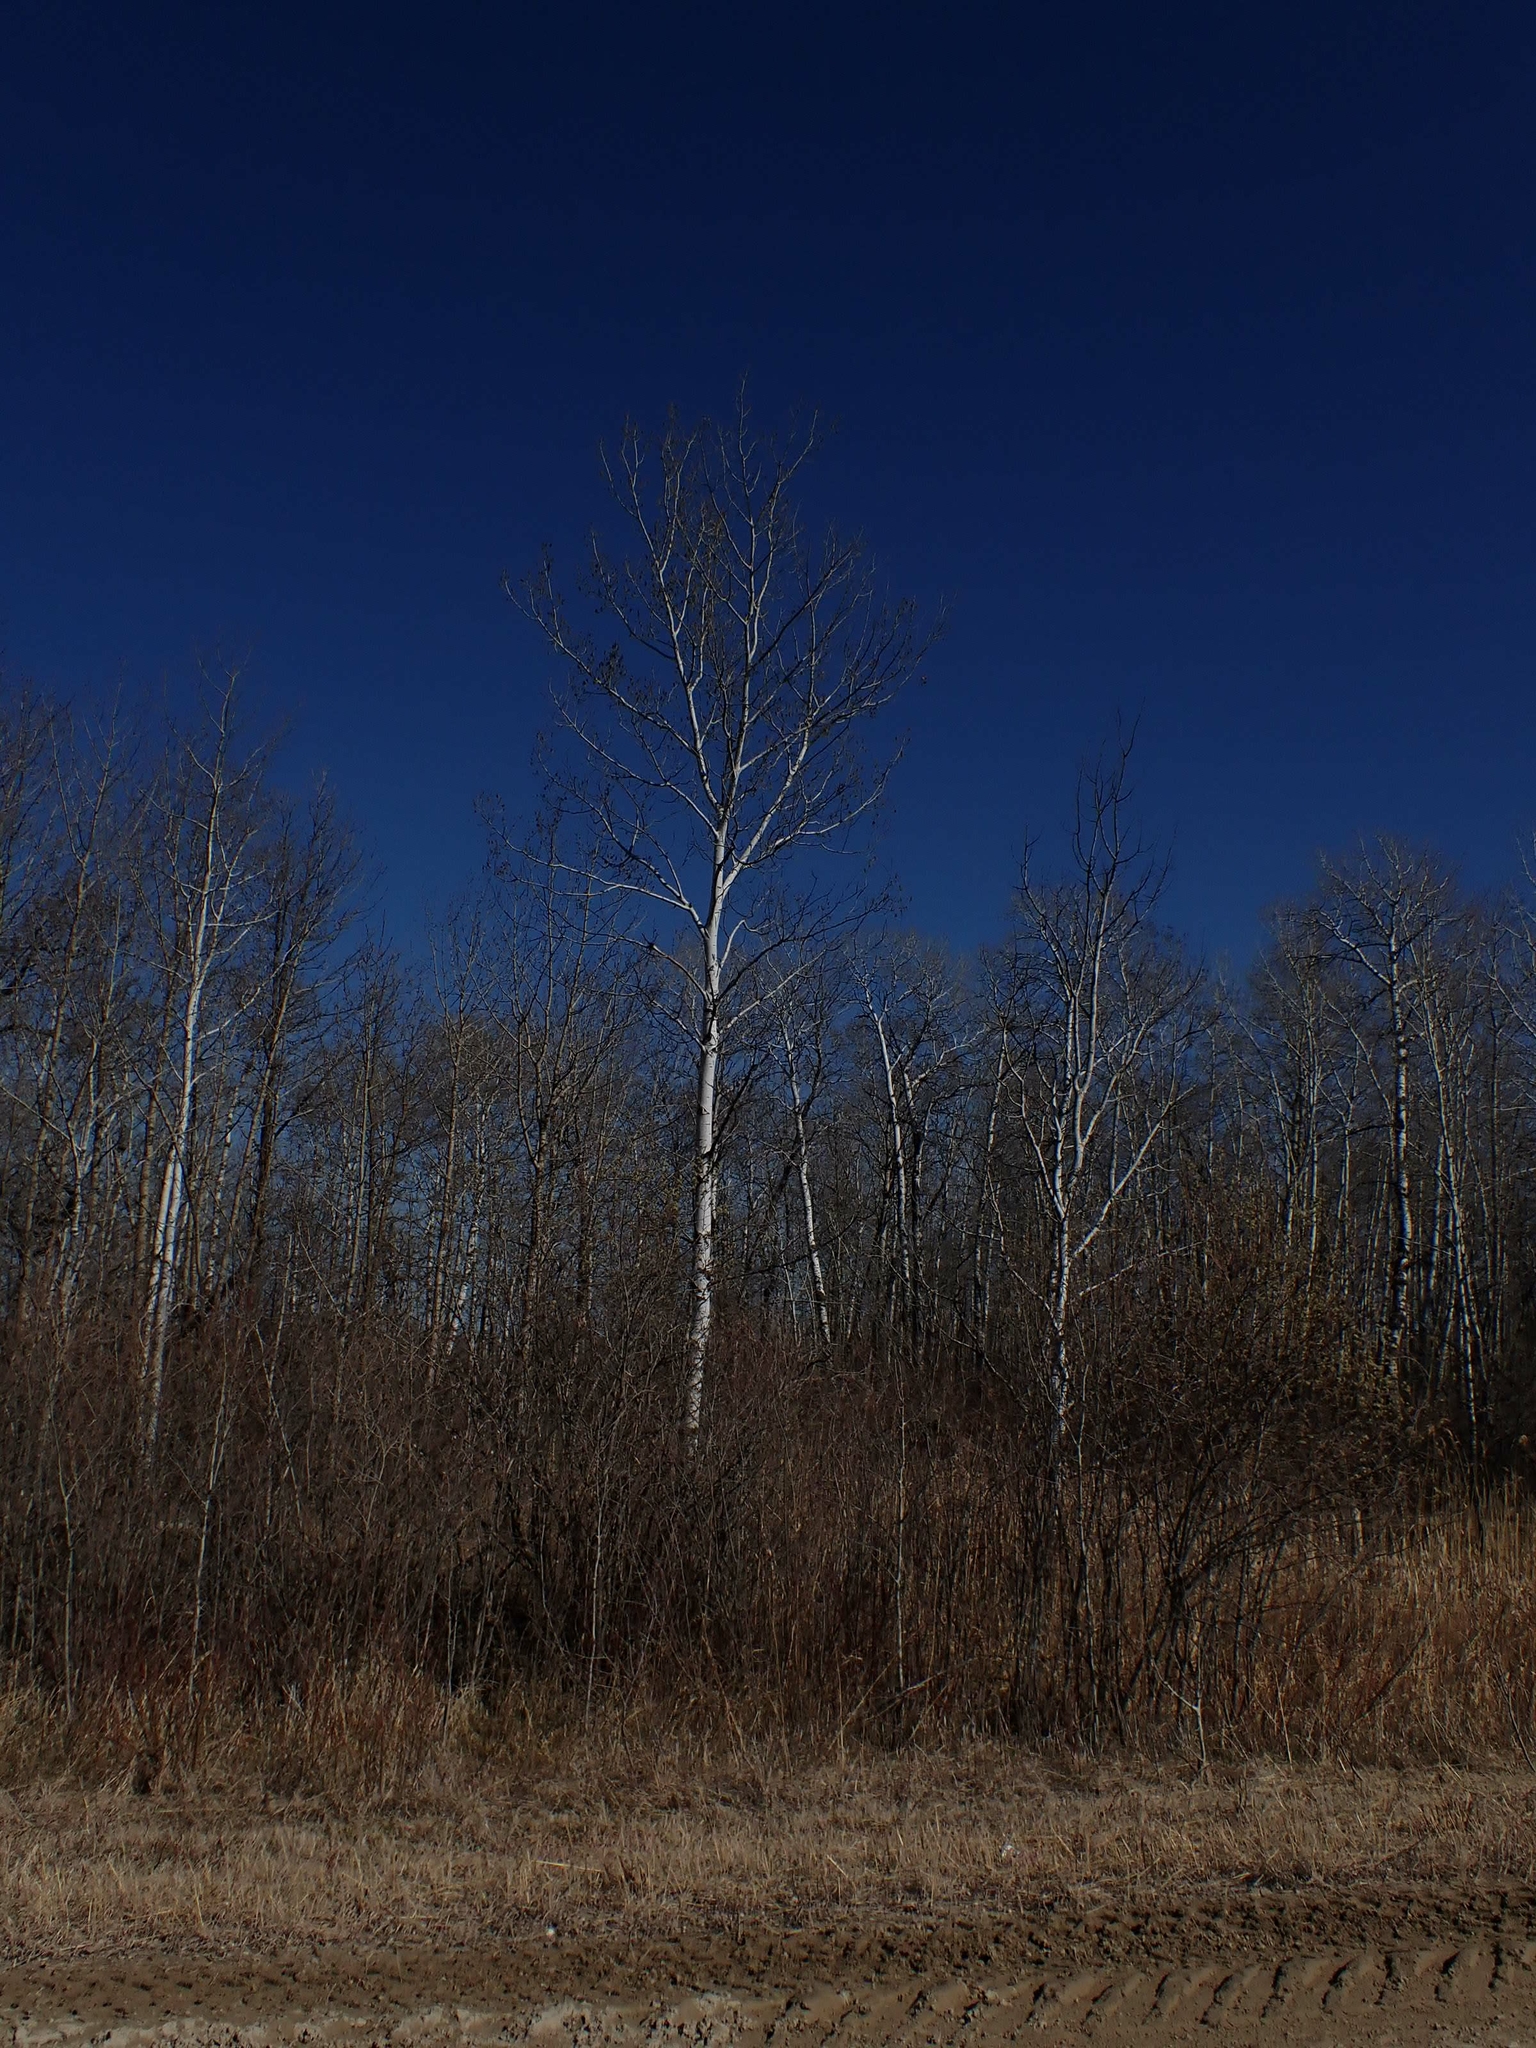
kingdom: Plantae
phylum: Tracheophyta
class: Magnoliopsida
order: Malpighiales
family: Salicaceae
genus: Populus
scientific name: Populus tremuloides
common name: Quaking aspen
